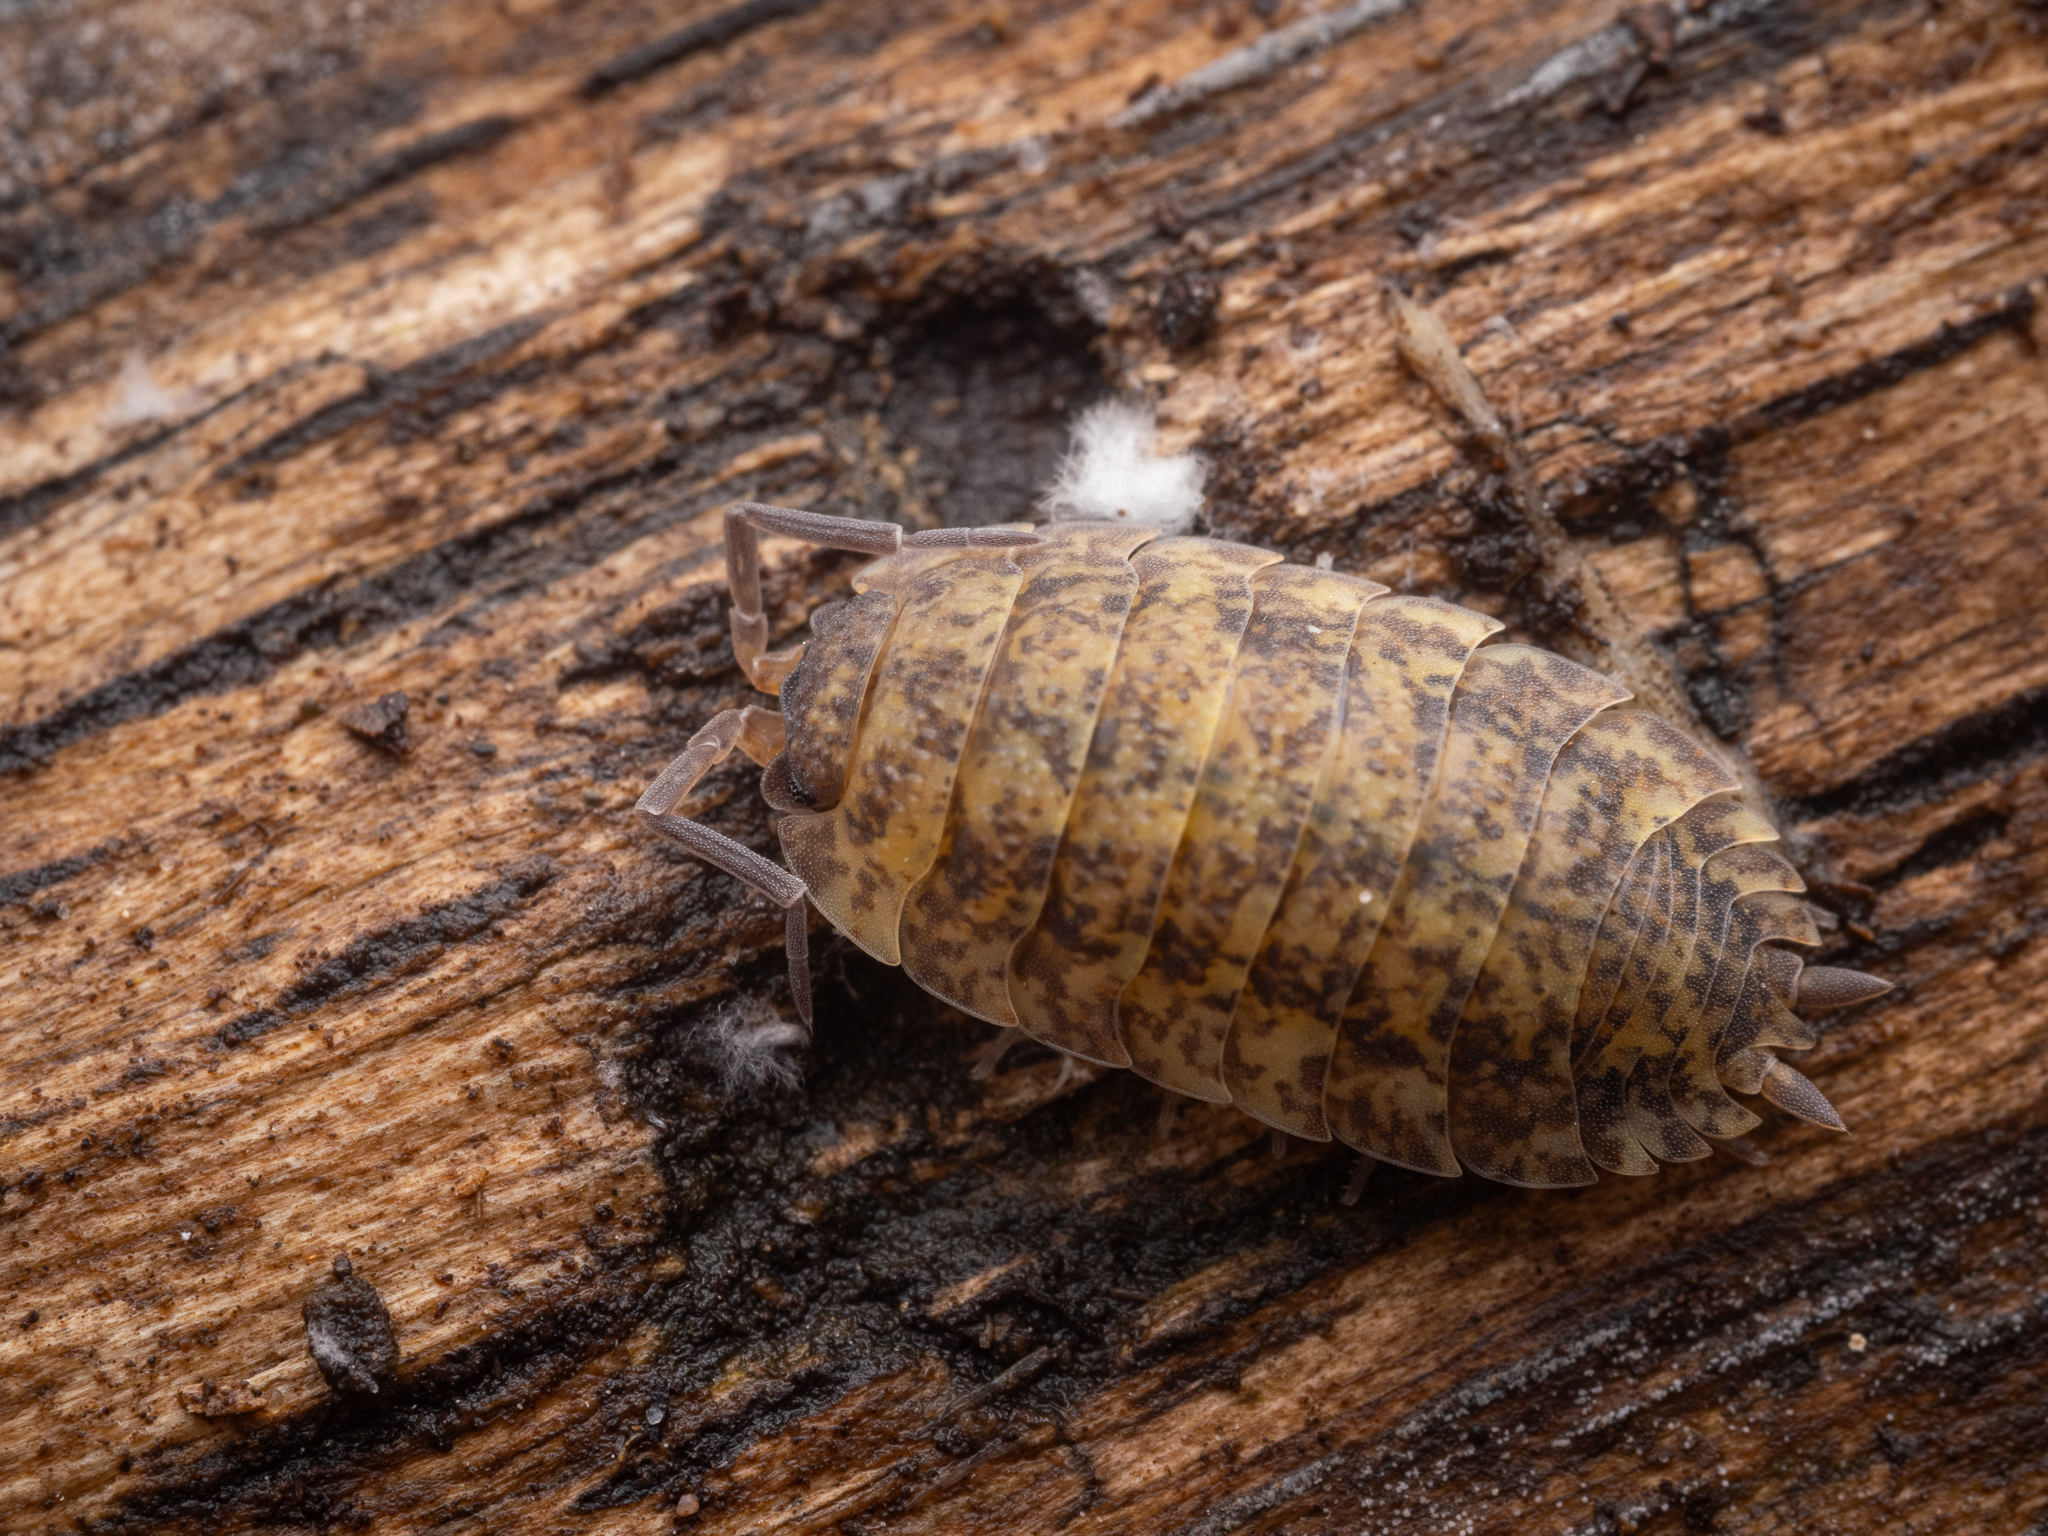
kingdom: Animalia
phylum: Arthropoda
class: Malacostraca
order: Isopoda
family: Porcellionidae
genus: Porcellio
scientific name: Porcellio scaber
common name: Common rough woodlouse
